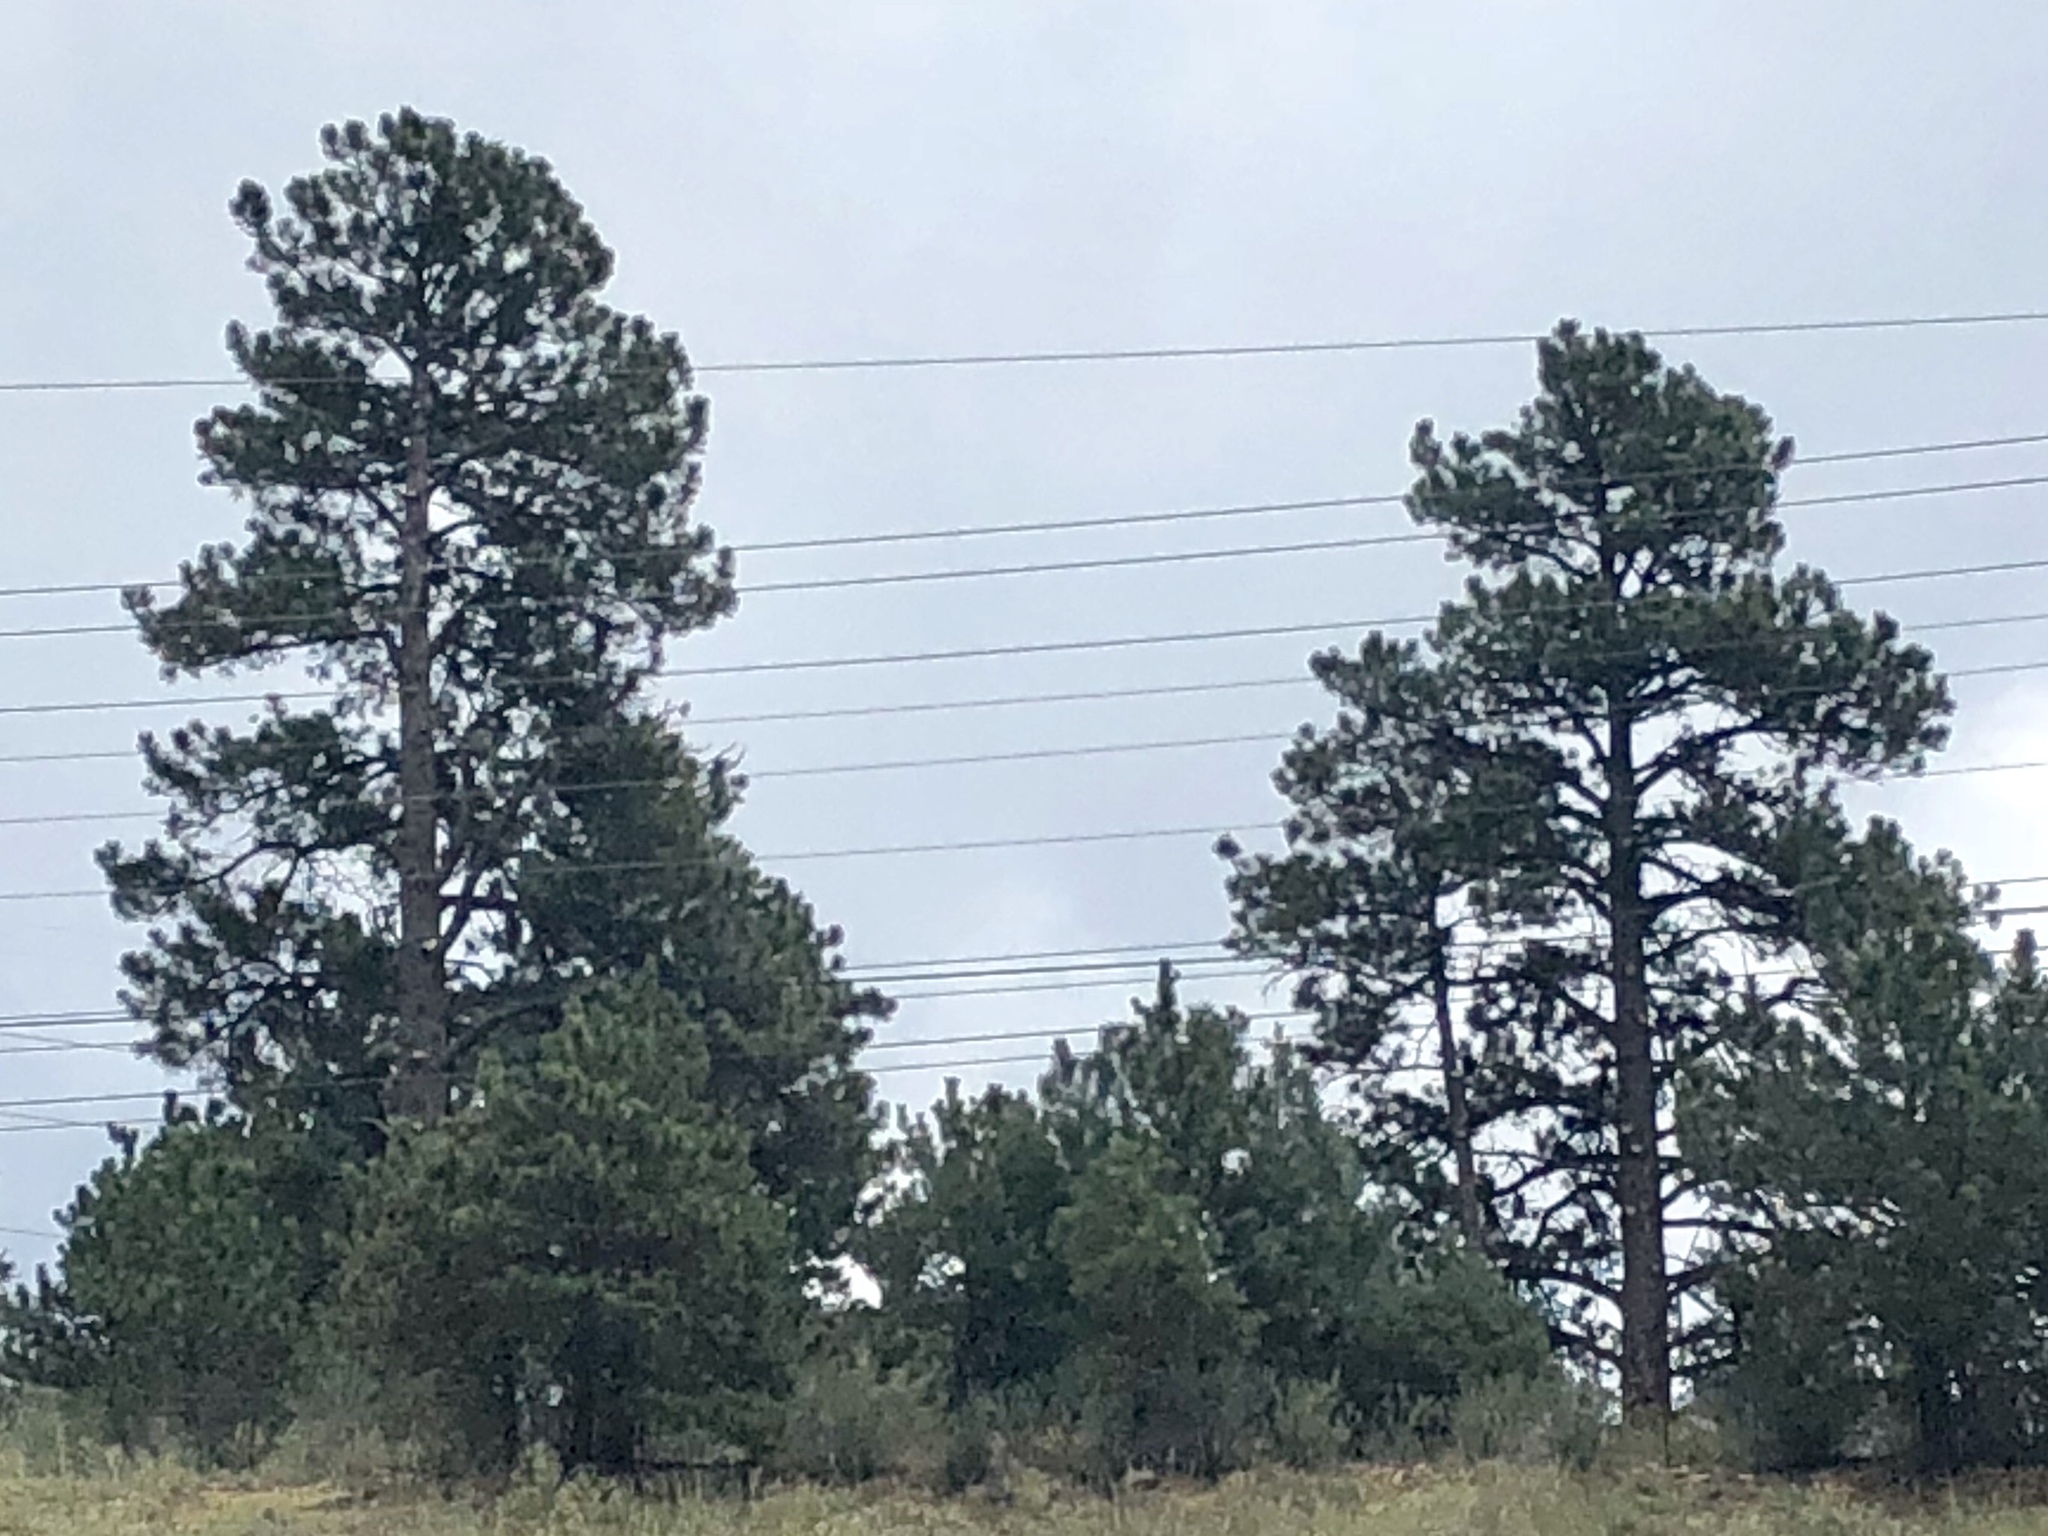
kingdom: Plantae
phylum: Tracheophyta
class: Pinopsida
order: Pinales
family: Pinaceae
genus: Pinus
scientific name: Pinus ponderosa
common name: Western yellow-pine
